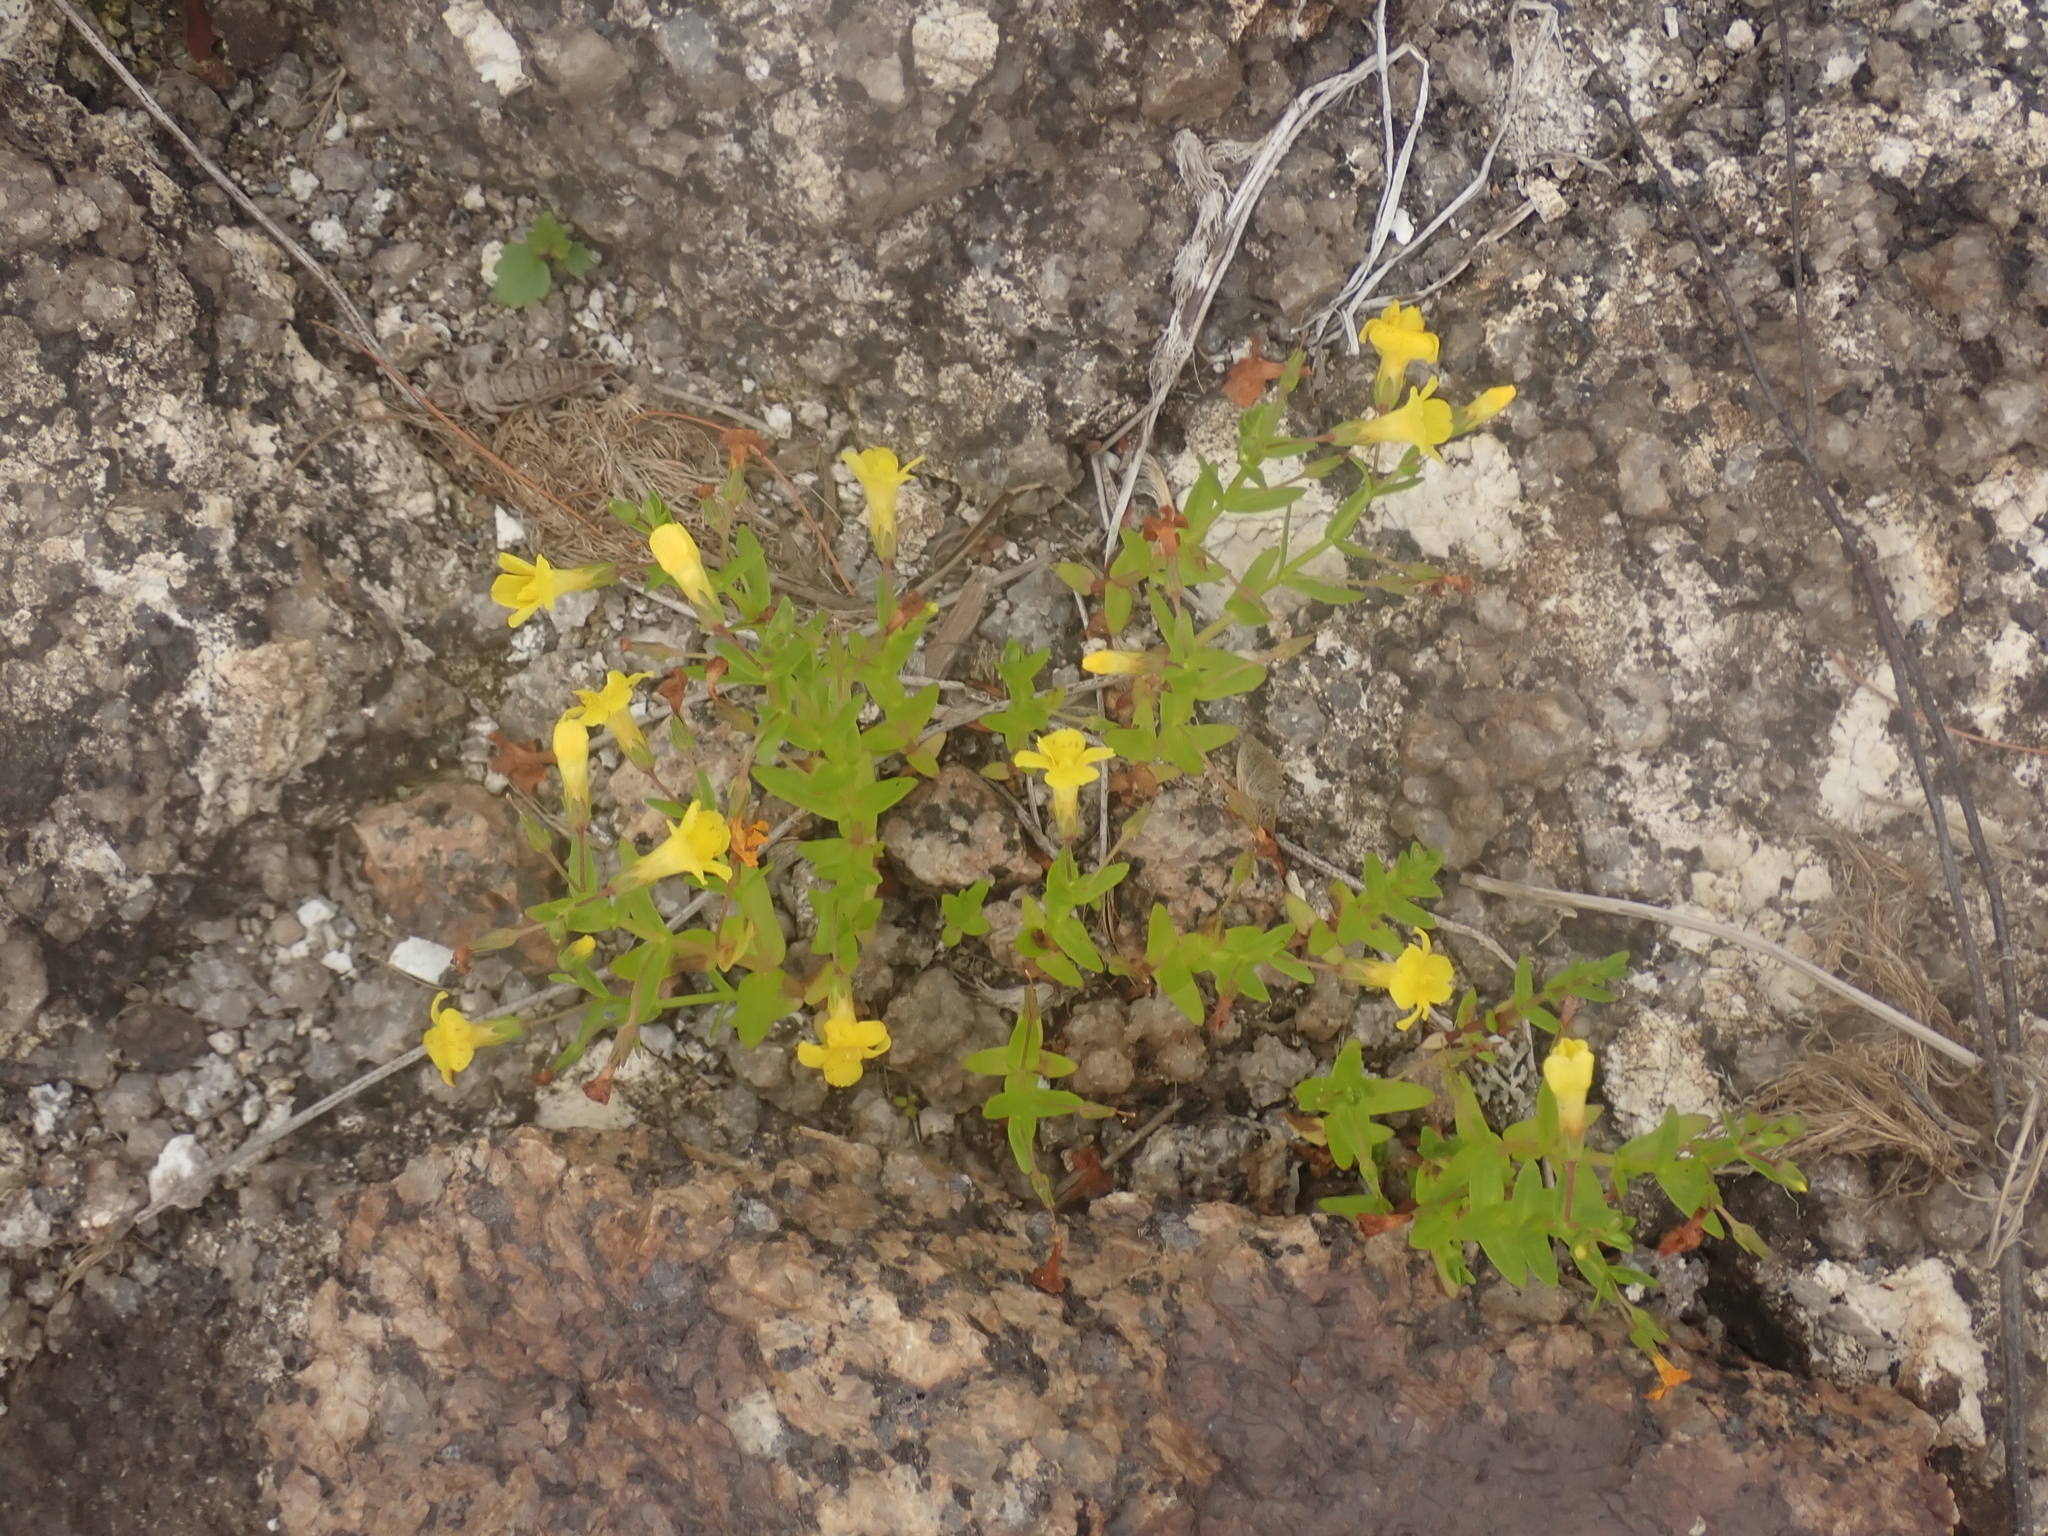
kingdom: Plantae
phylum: Tracheophyta
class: Magnoliopsida
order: Lamiales
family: Plantaginaceae
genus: Gratiola
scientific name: Gratiola lutea
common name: Golden hedge-hyssop
